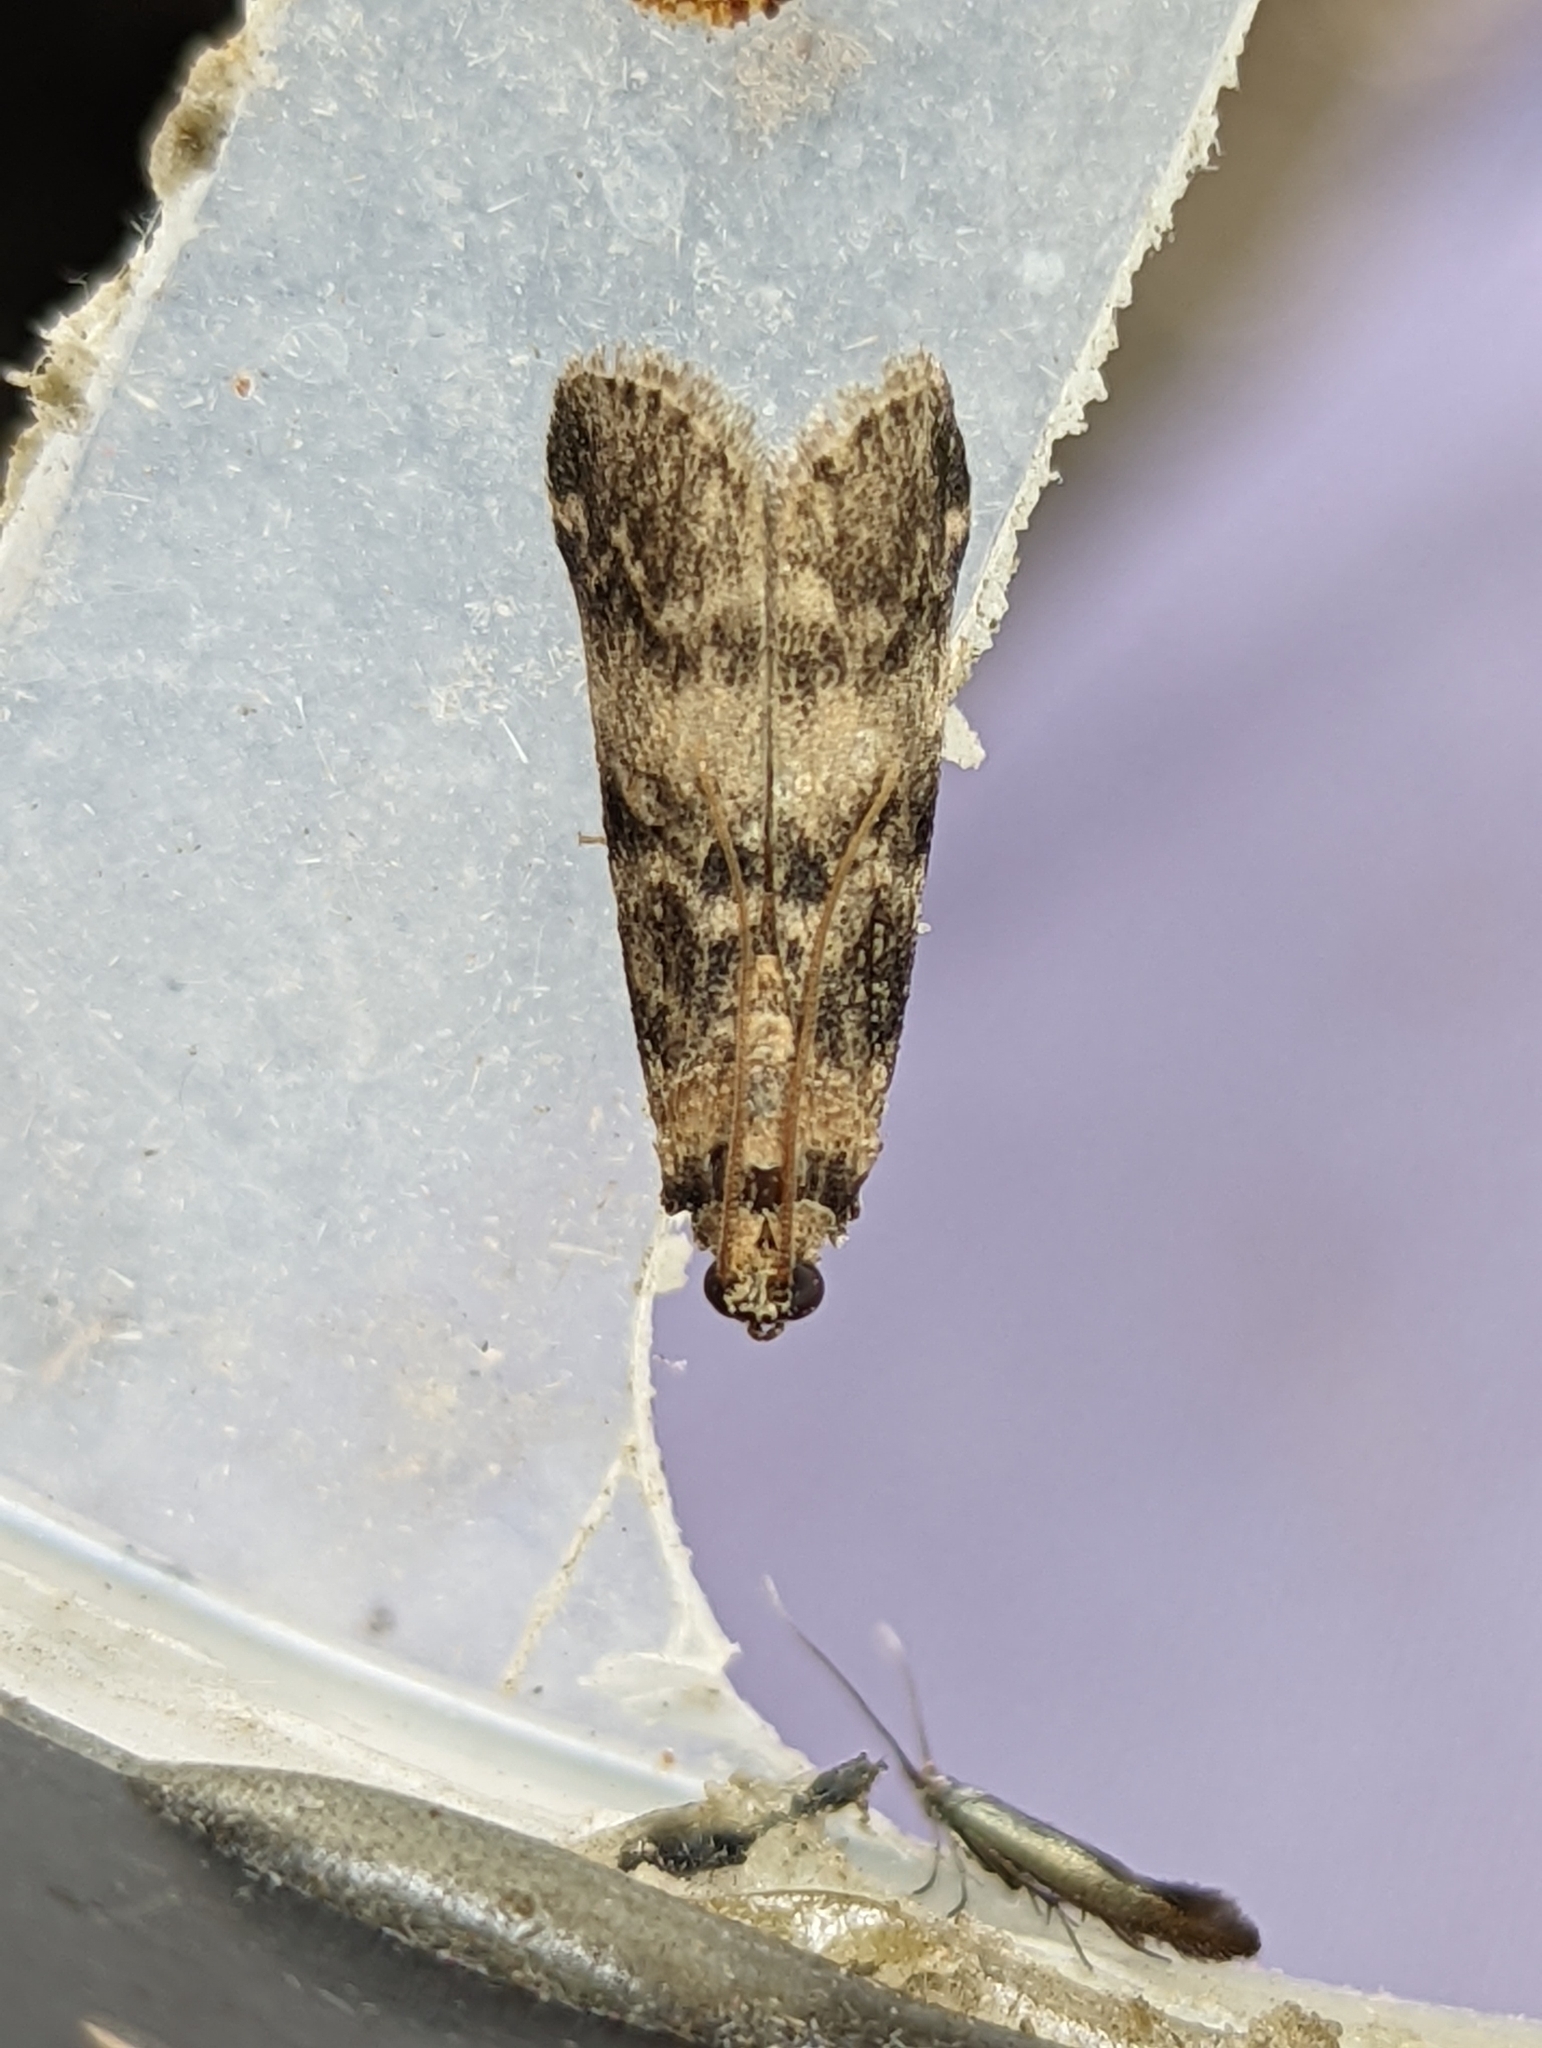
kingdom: Animalia
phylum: Arthropoda
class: Insecta
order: Lepidoptera
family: Pyralidae
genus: Euzophera
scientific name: Euzophera pinguis
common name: Ash-bark knot-horn
